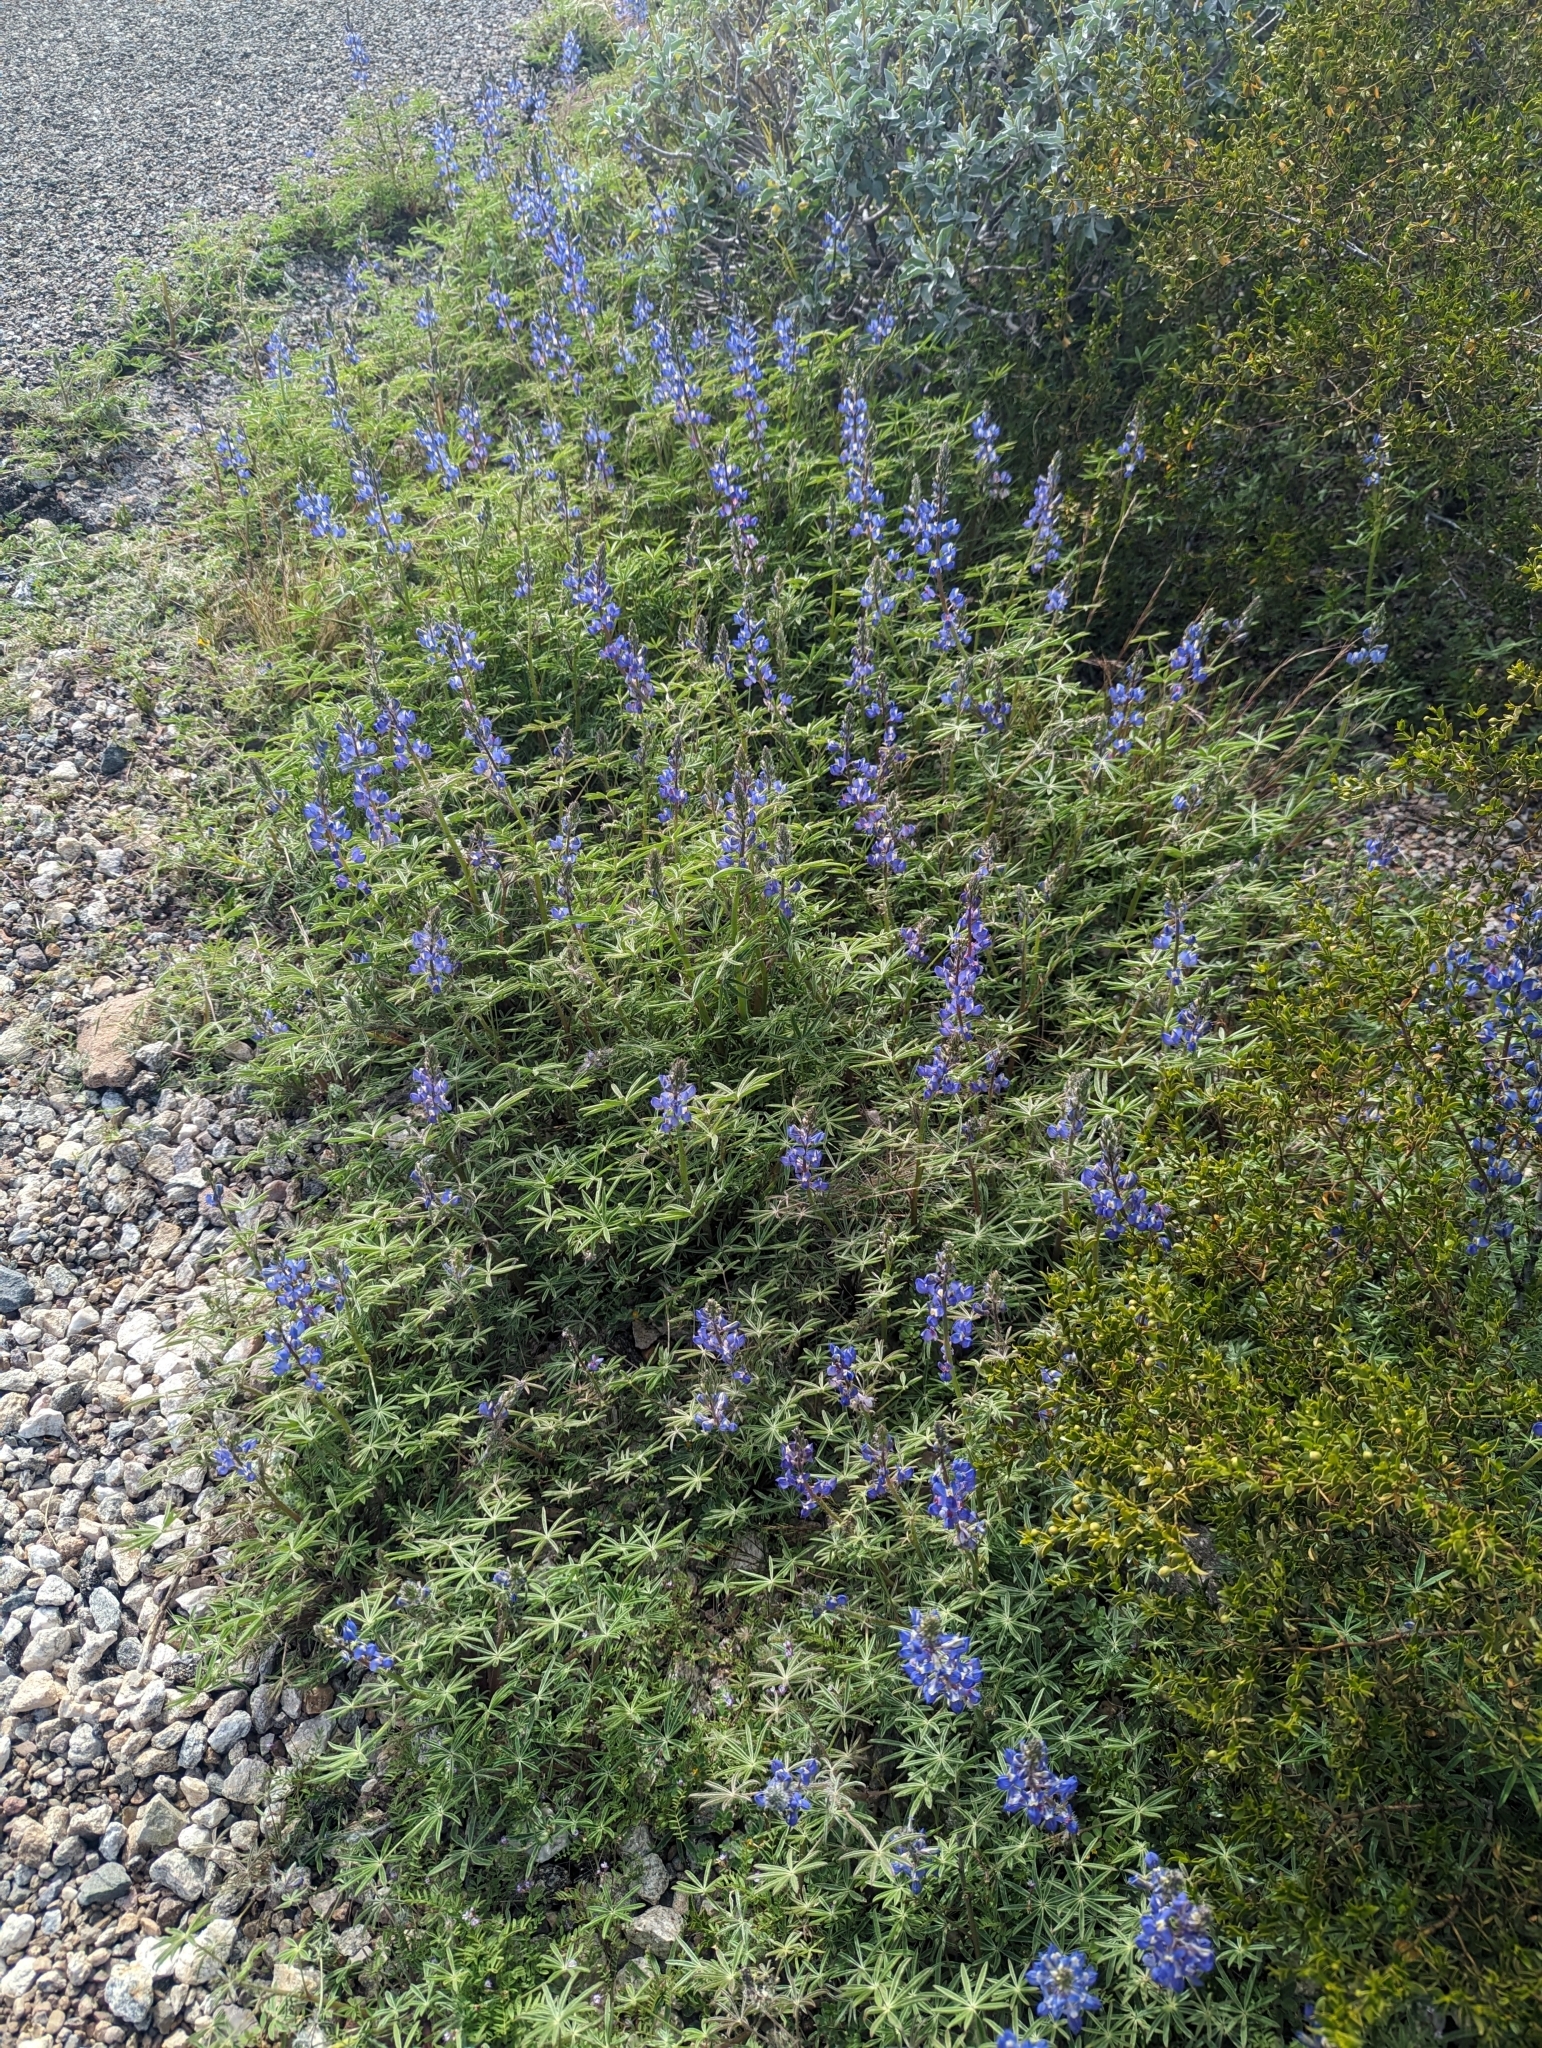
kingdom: Plantae
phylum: Tracheophyta
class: Magnoliopsida
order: Fabales
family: Fabaceae
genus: Lupinus
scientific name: Lupinus sparsiflorus
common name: Coulter's lupine
